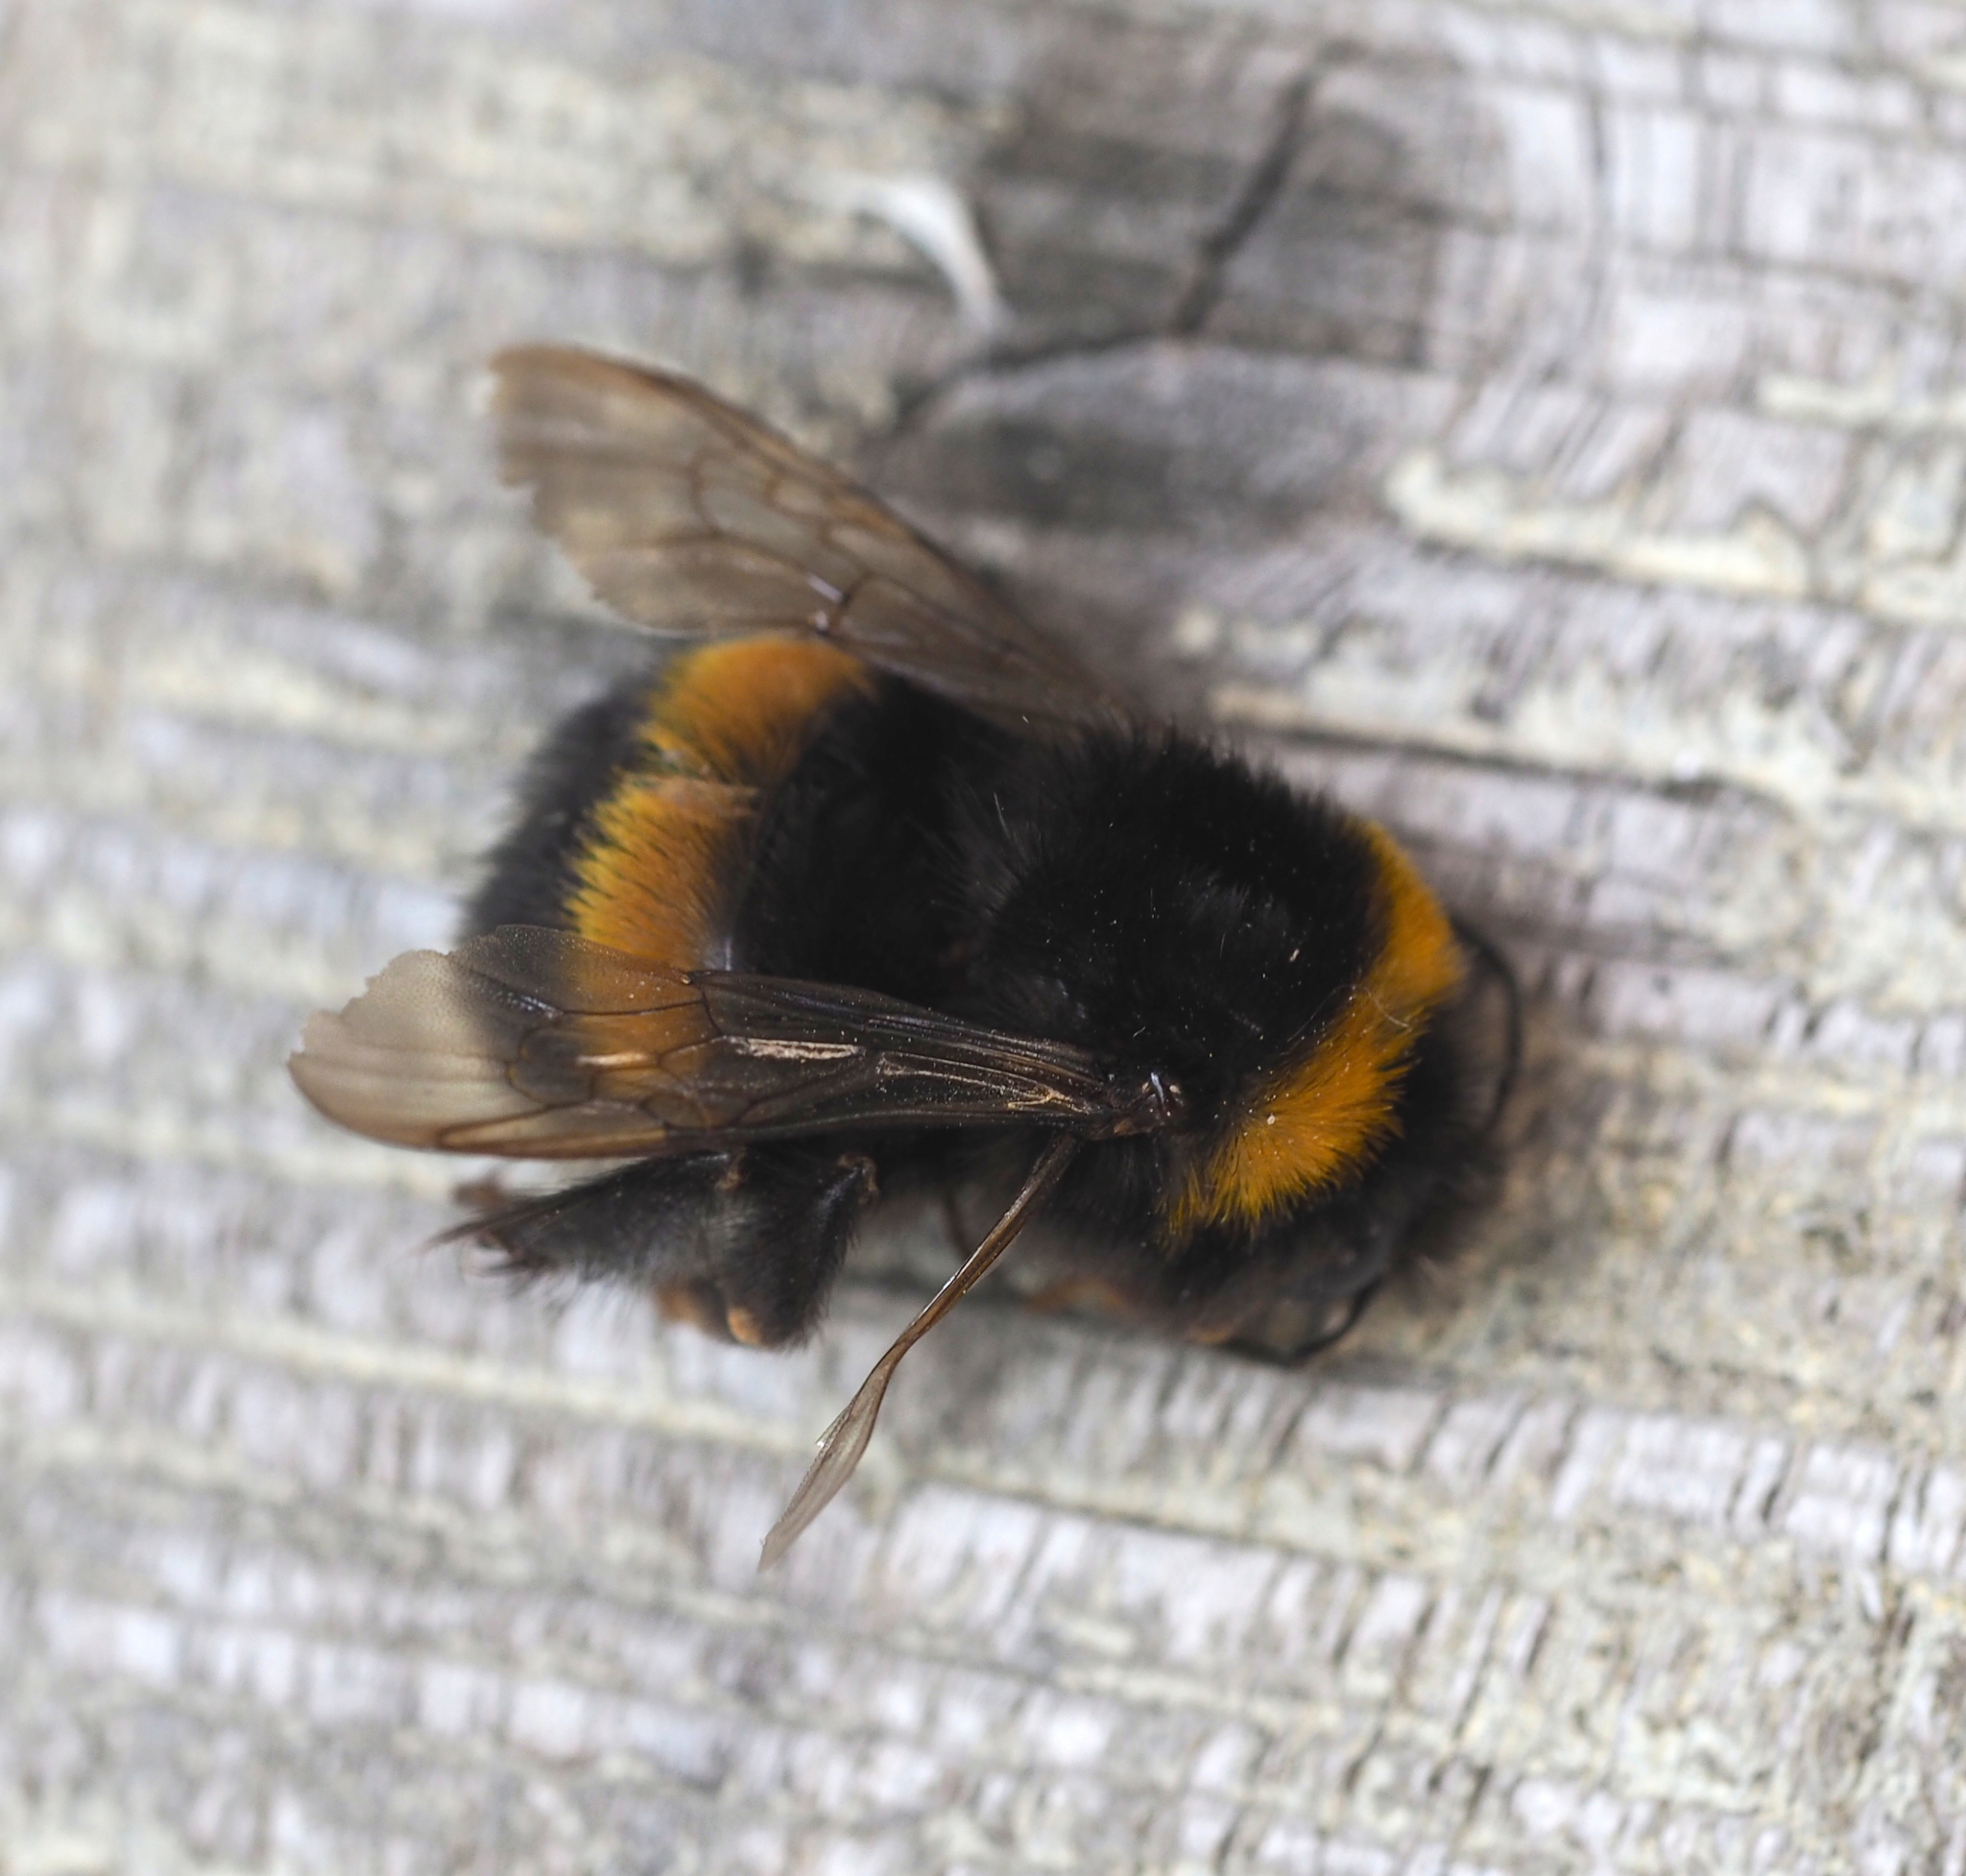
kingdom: Animalia
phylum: Arthropoda
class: Insecta
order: Hymenoptera
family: Apidae
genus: Bombus
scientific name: Bombus terrestris
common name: Buff-tailed bumblebee
